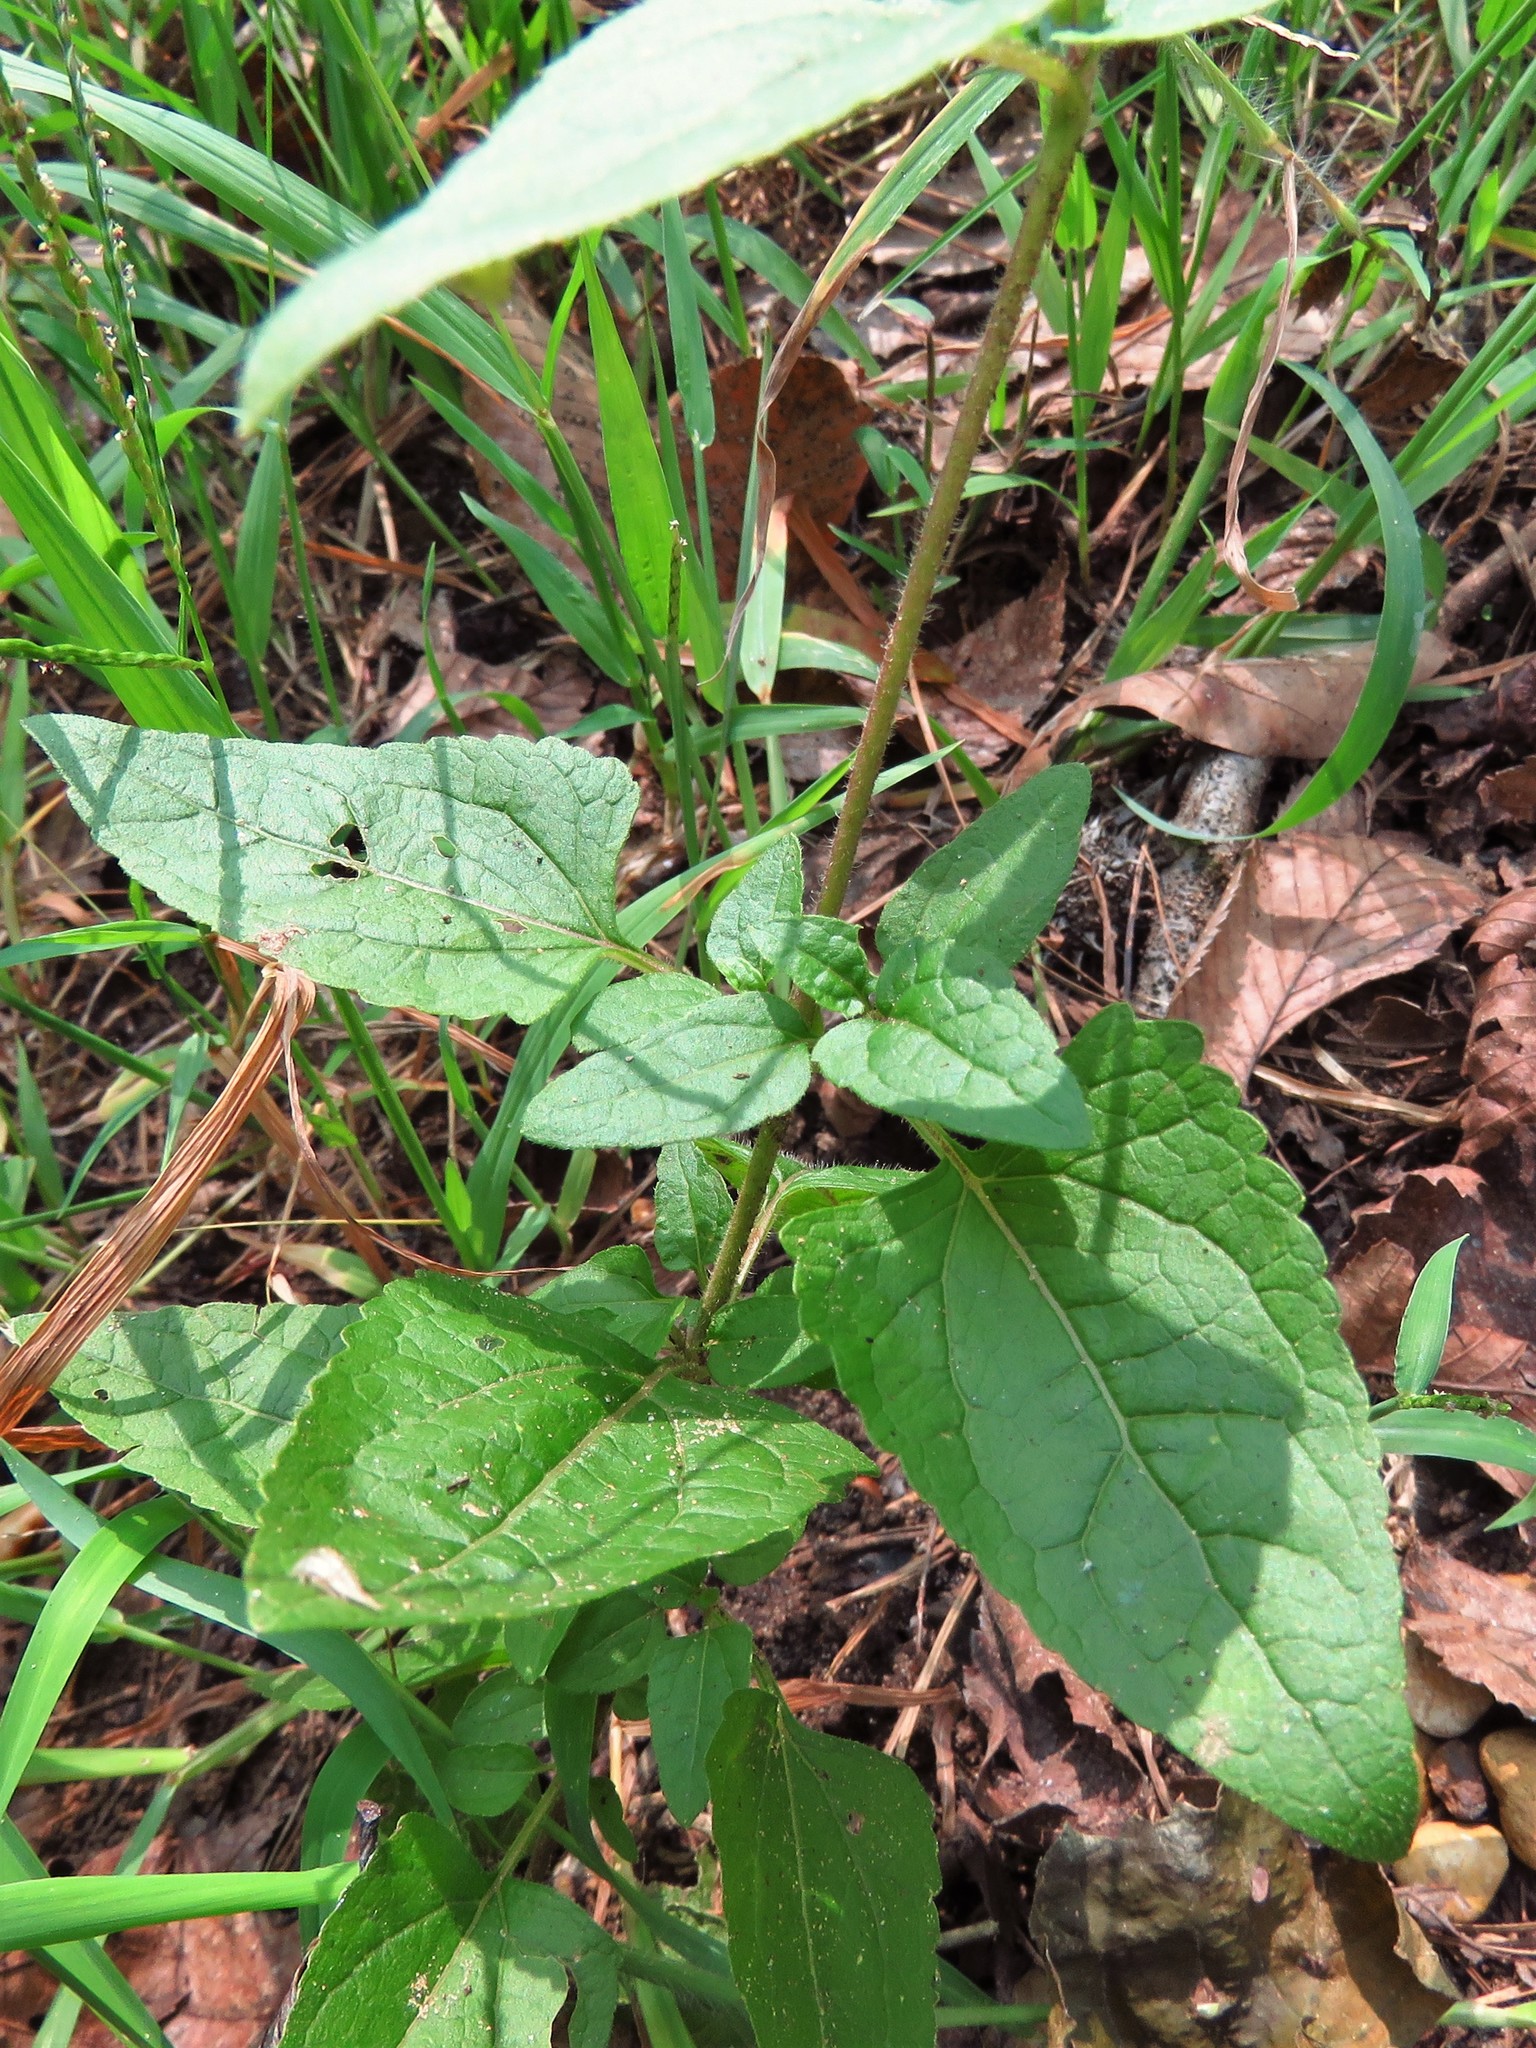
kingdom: Plantae
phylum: Tracheophyta
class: Magnoliopsida
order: Asterales
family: Asteraceae
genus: Conoclinium
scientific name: Conoclinium coelestinum
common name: Blue mistflower
